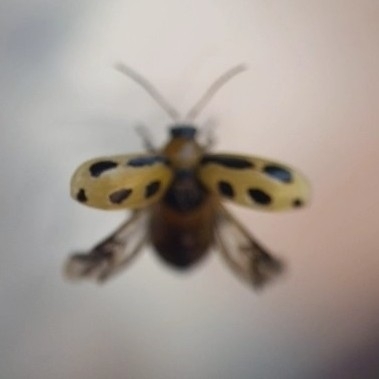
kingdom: Animalia
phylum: Arthropoda
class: Insecta
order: Coleoptera
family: Chrysomelidae
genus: Cerotoma
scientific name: Cerotoma trifurcata
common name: Bean leaf beetle
